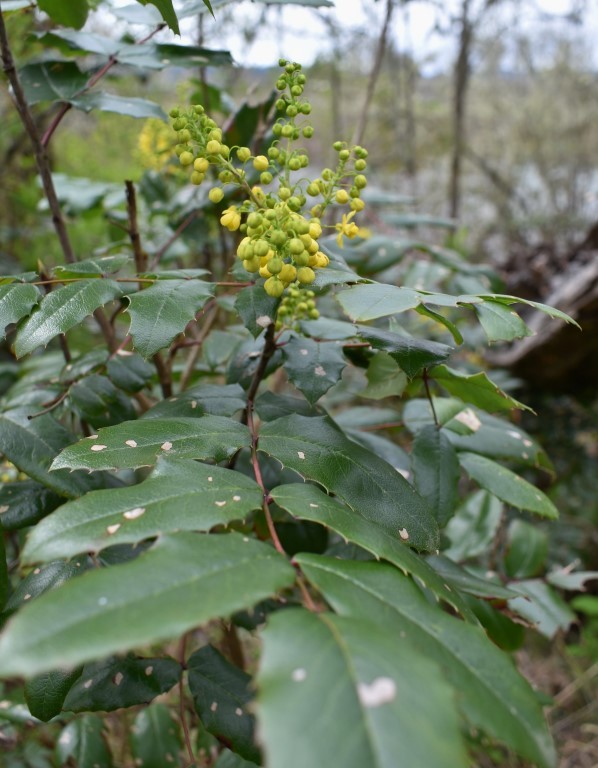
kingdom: Plantae
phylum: Tracheophyta
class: Magnoliopsida
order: Ranunculales
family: Berberidaceae
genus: Mahonia
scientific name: Mahonia aquifolium
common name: Oregon-grape
